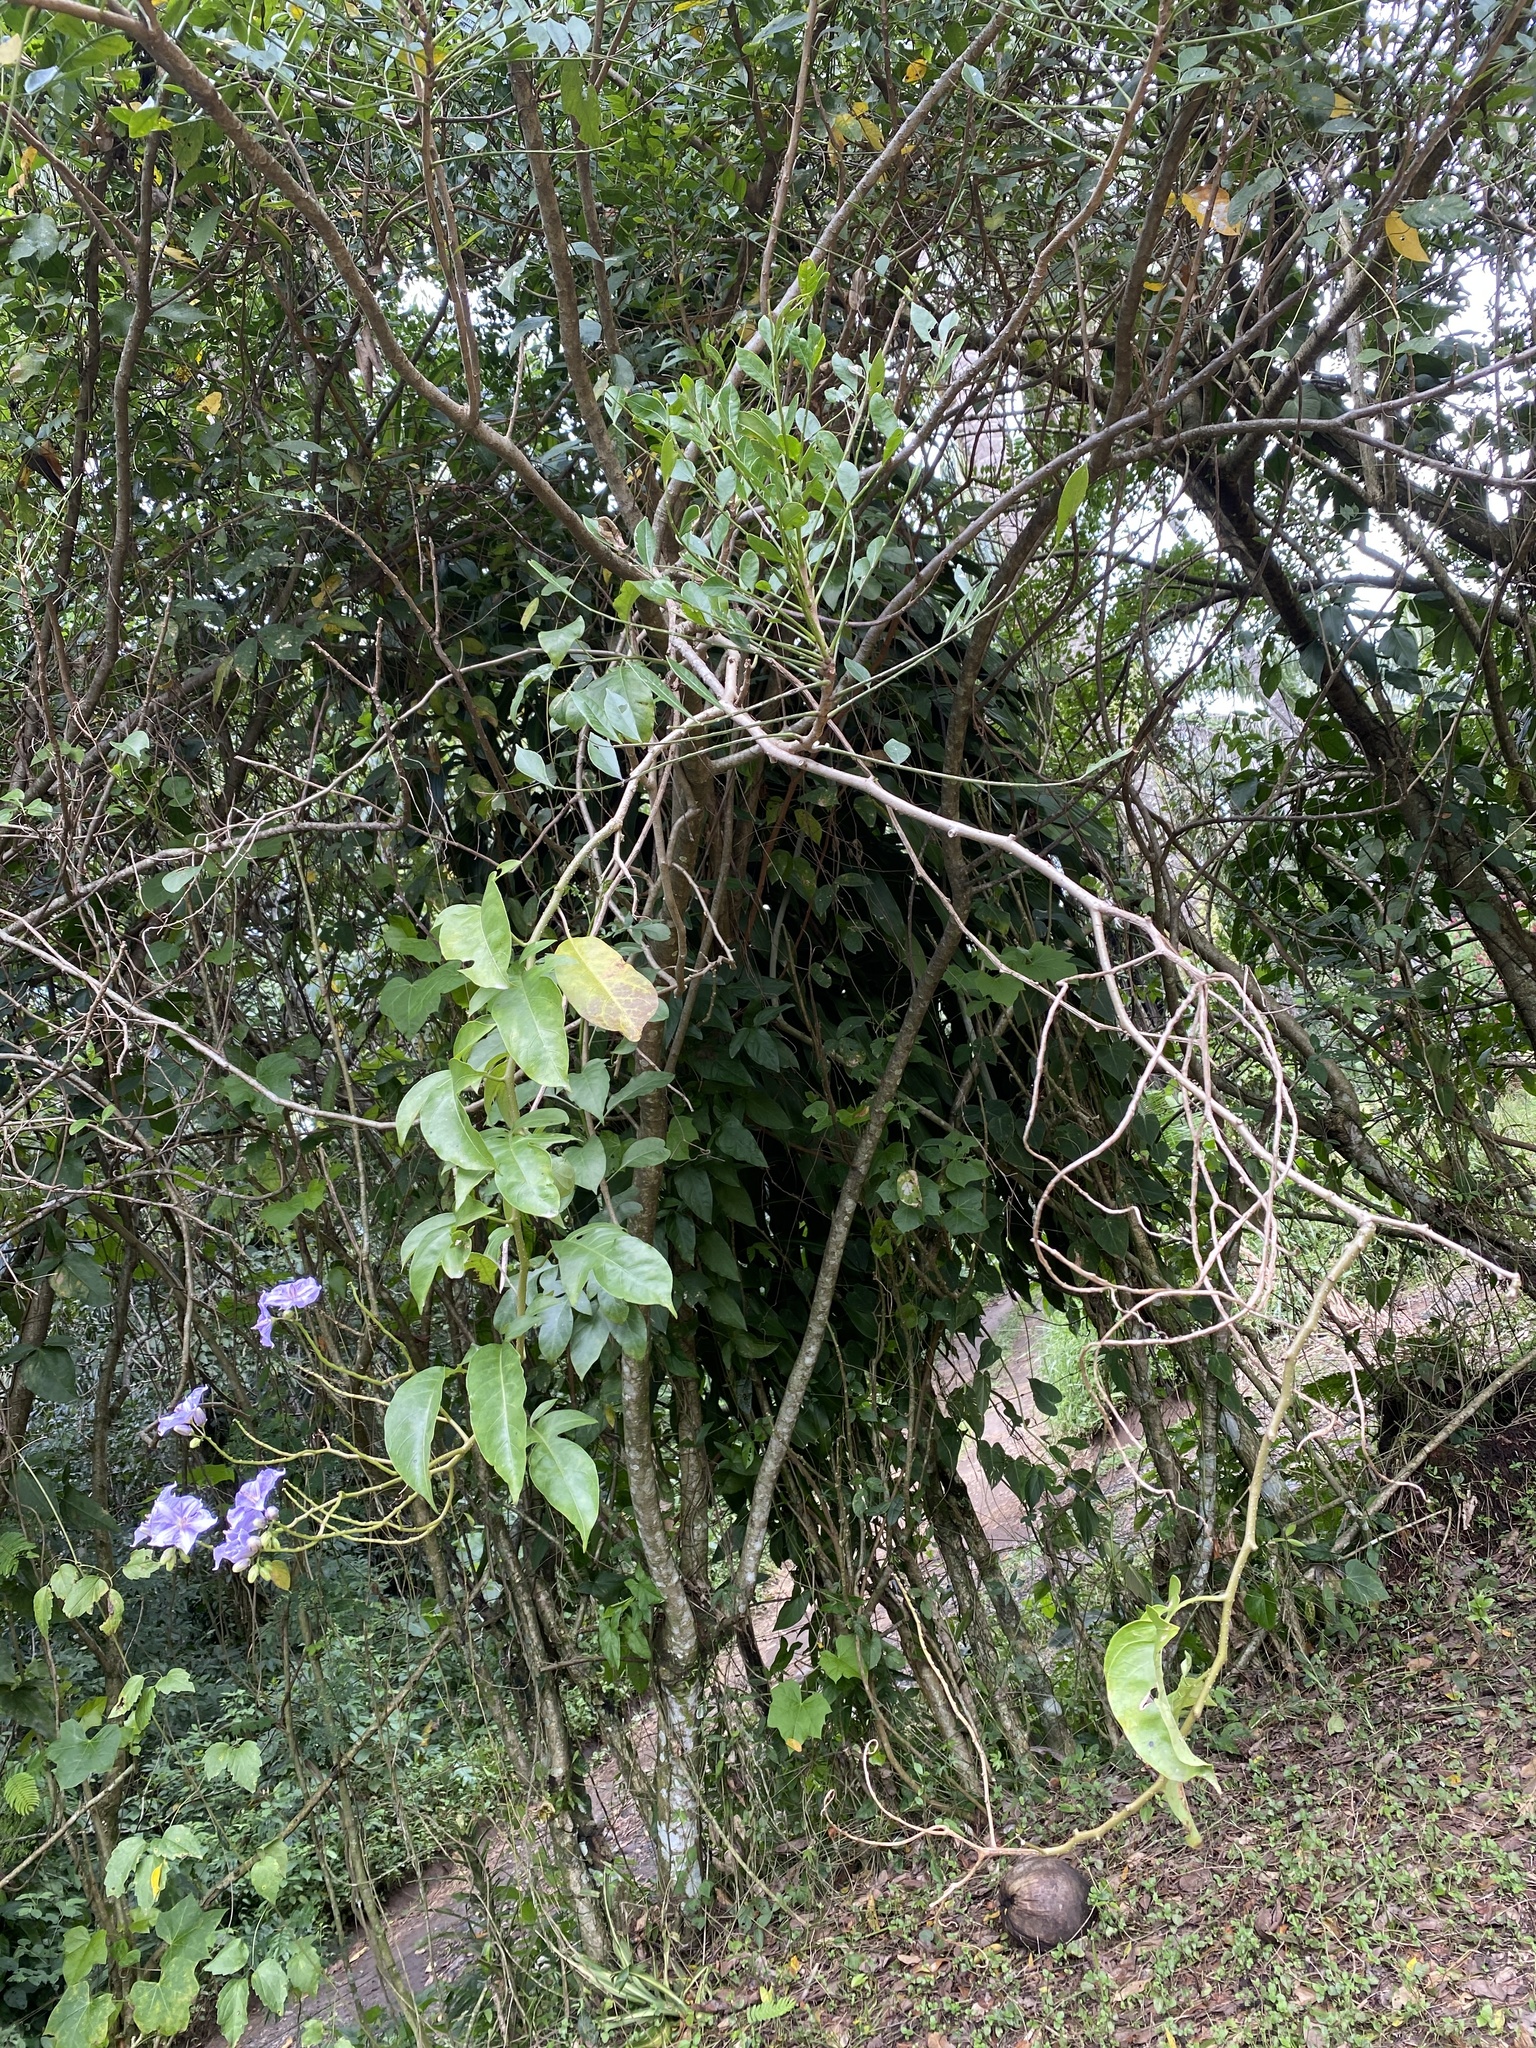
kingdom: Plantae
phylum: Tracheophyta
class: Magnoliopsida
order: Solanales
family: Solanaceae
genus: Solanum
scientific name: Solanum wendlandii
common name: Costa rican nightshade
